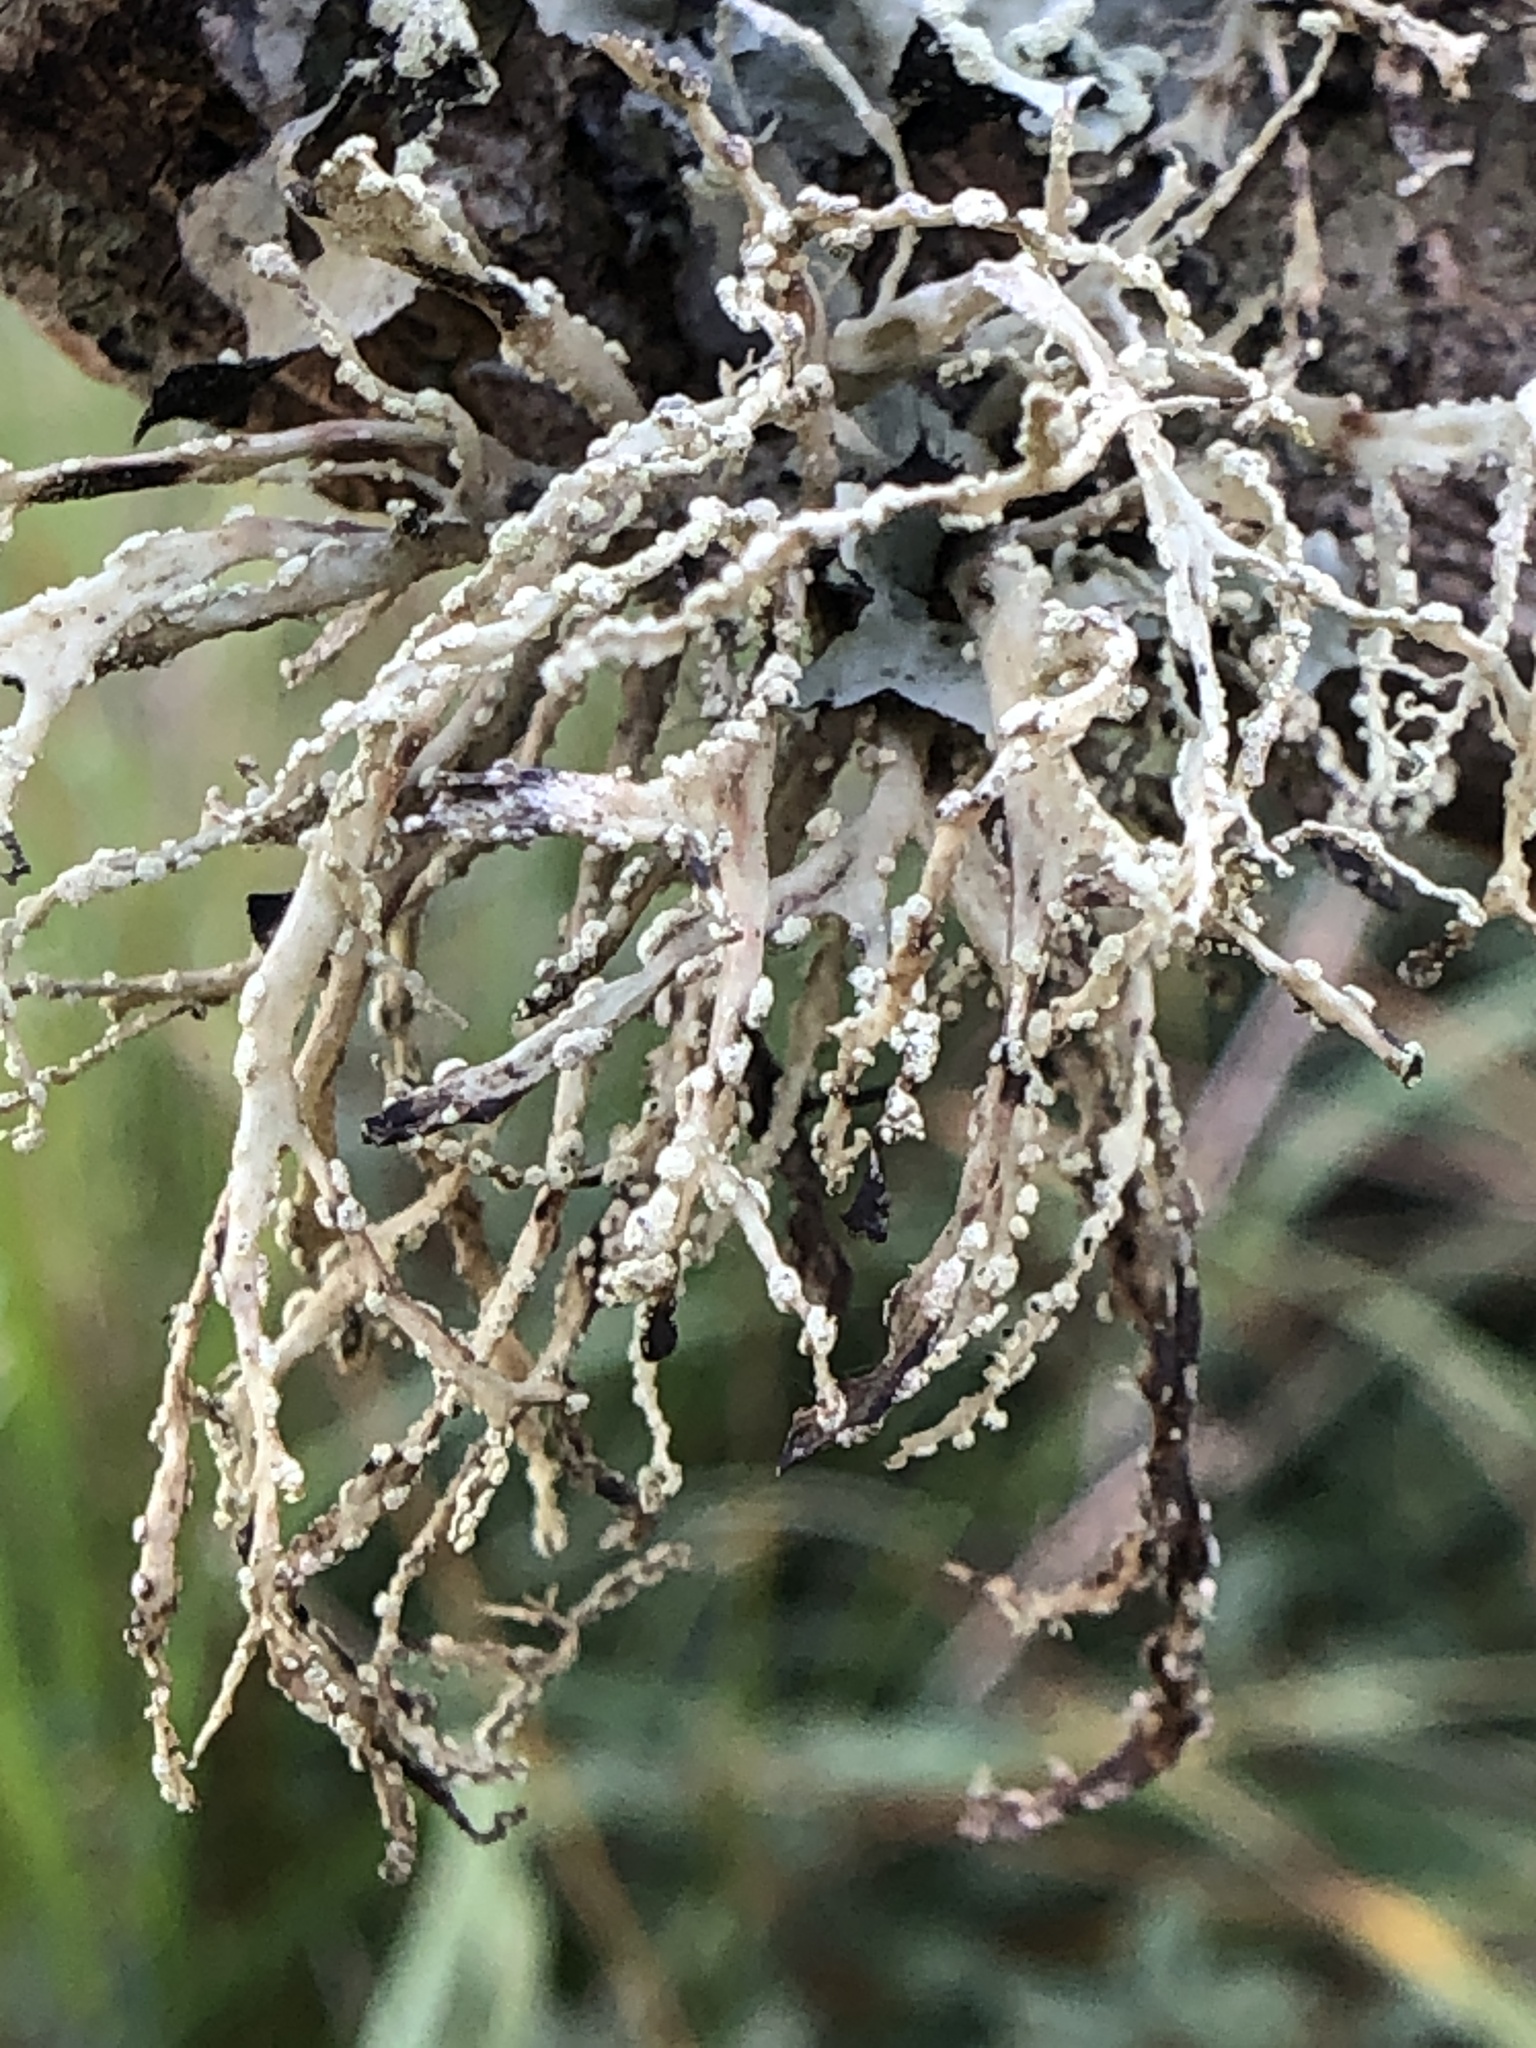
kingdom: Fungi
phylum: Ascomycota
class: Lecanoromycetes
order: Lecanorales
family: Ramalinaceae
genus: Ramalina
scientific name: Ramalina farinacea
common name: Farinose cartilage lichen
